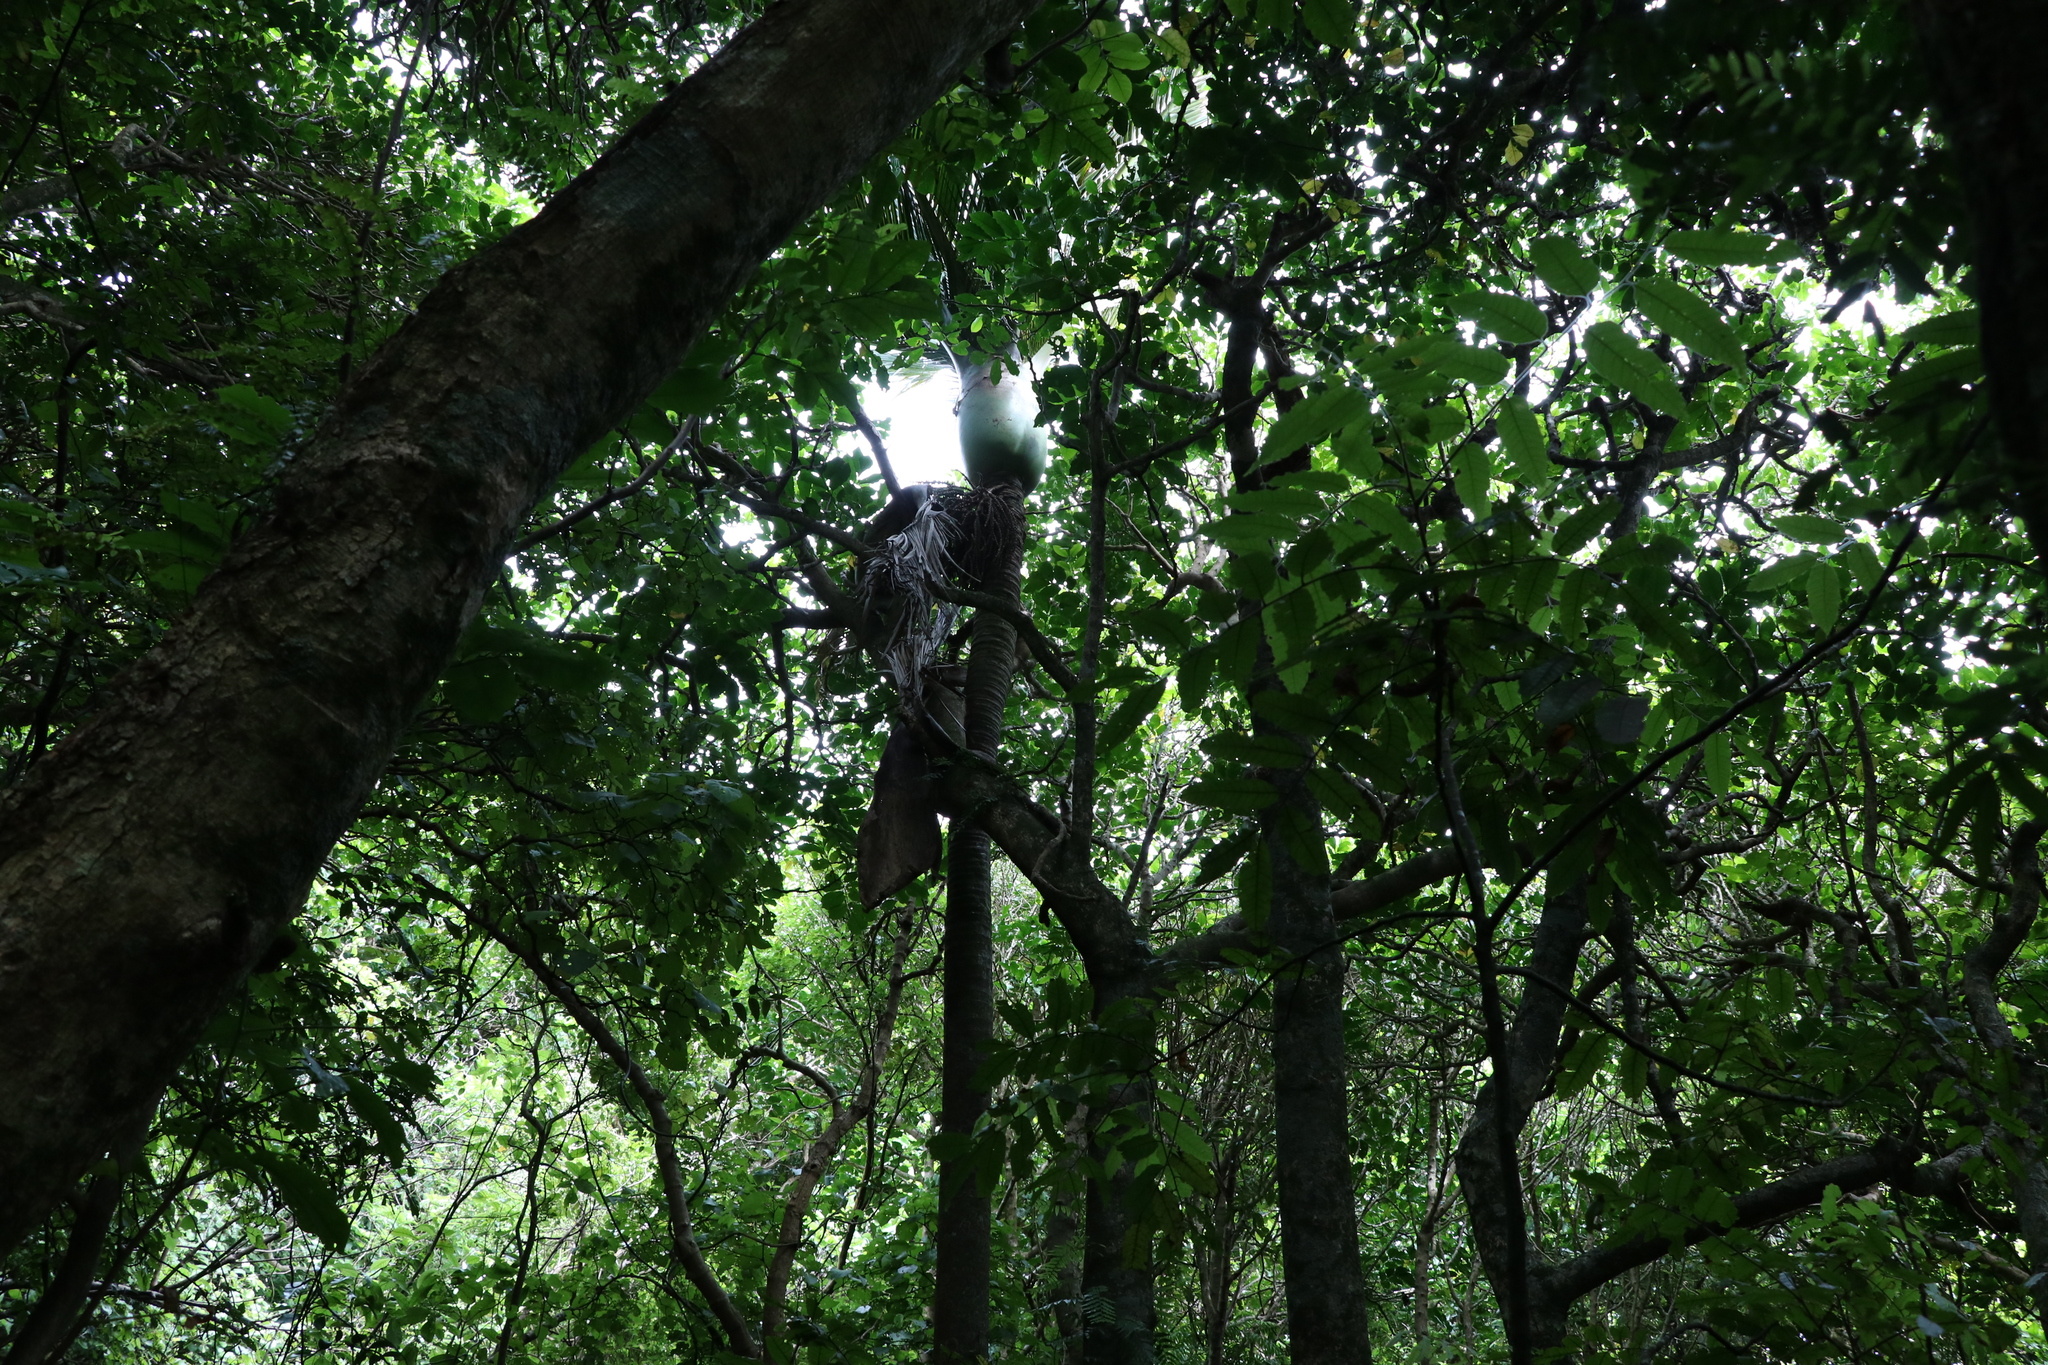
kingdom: Plantae
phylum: Tracheophyta
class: Liliopsida
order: Arecales
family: Arecaceae
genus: Rhopalostylis
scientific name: Rhopalostylis sapida
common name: Feather-duster palm
